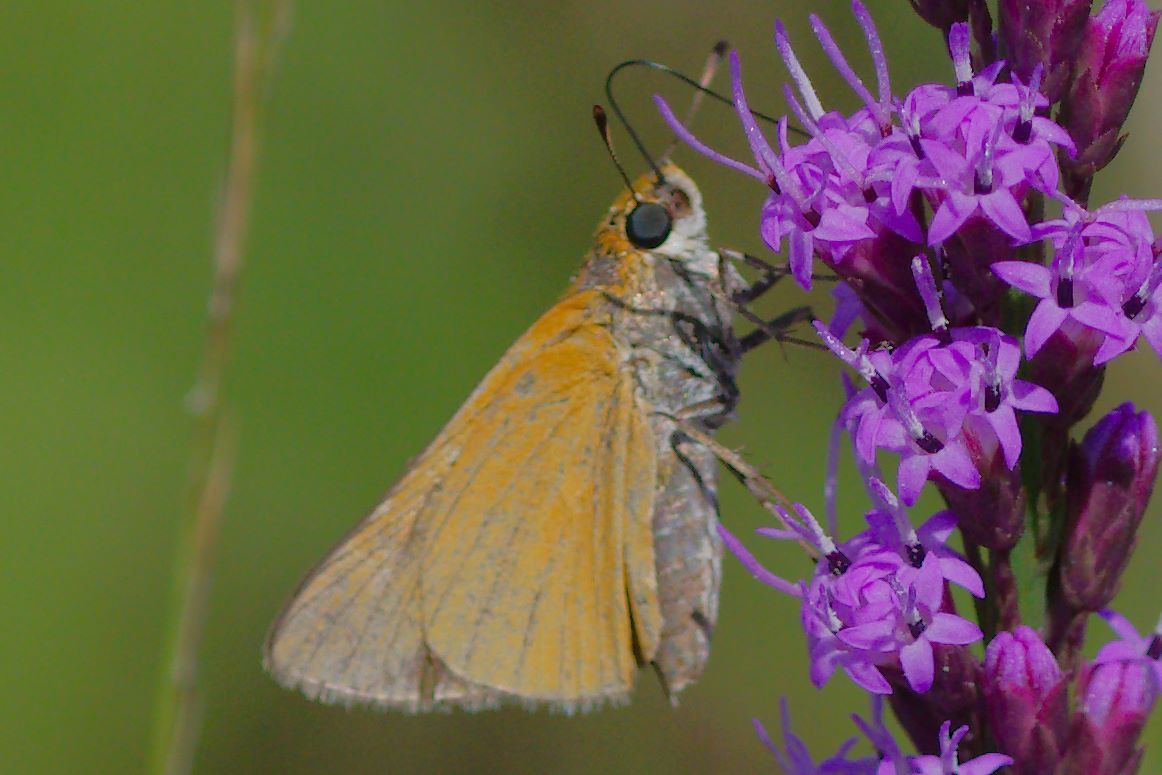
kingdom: Animalia
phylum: Arthropoda
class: Insecta
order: Lepidoptera
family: Hesperiidae
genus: Euphyes
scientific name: Euphyes arpa
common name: Palmetto skipper
